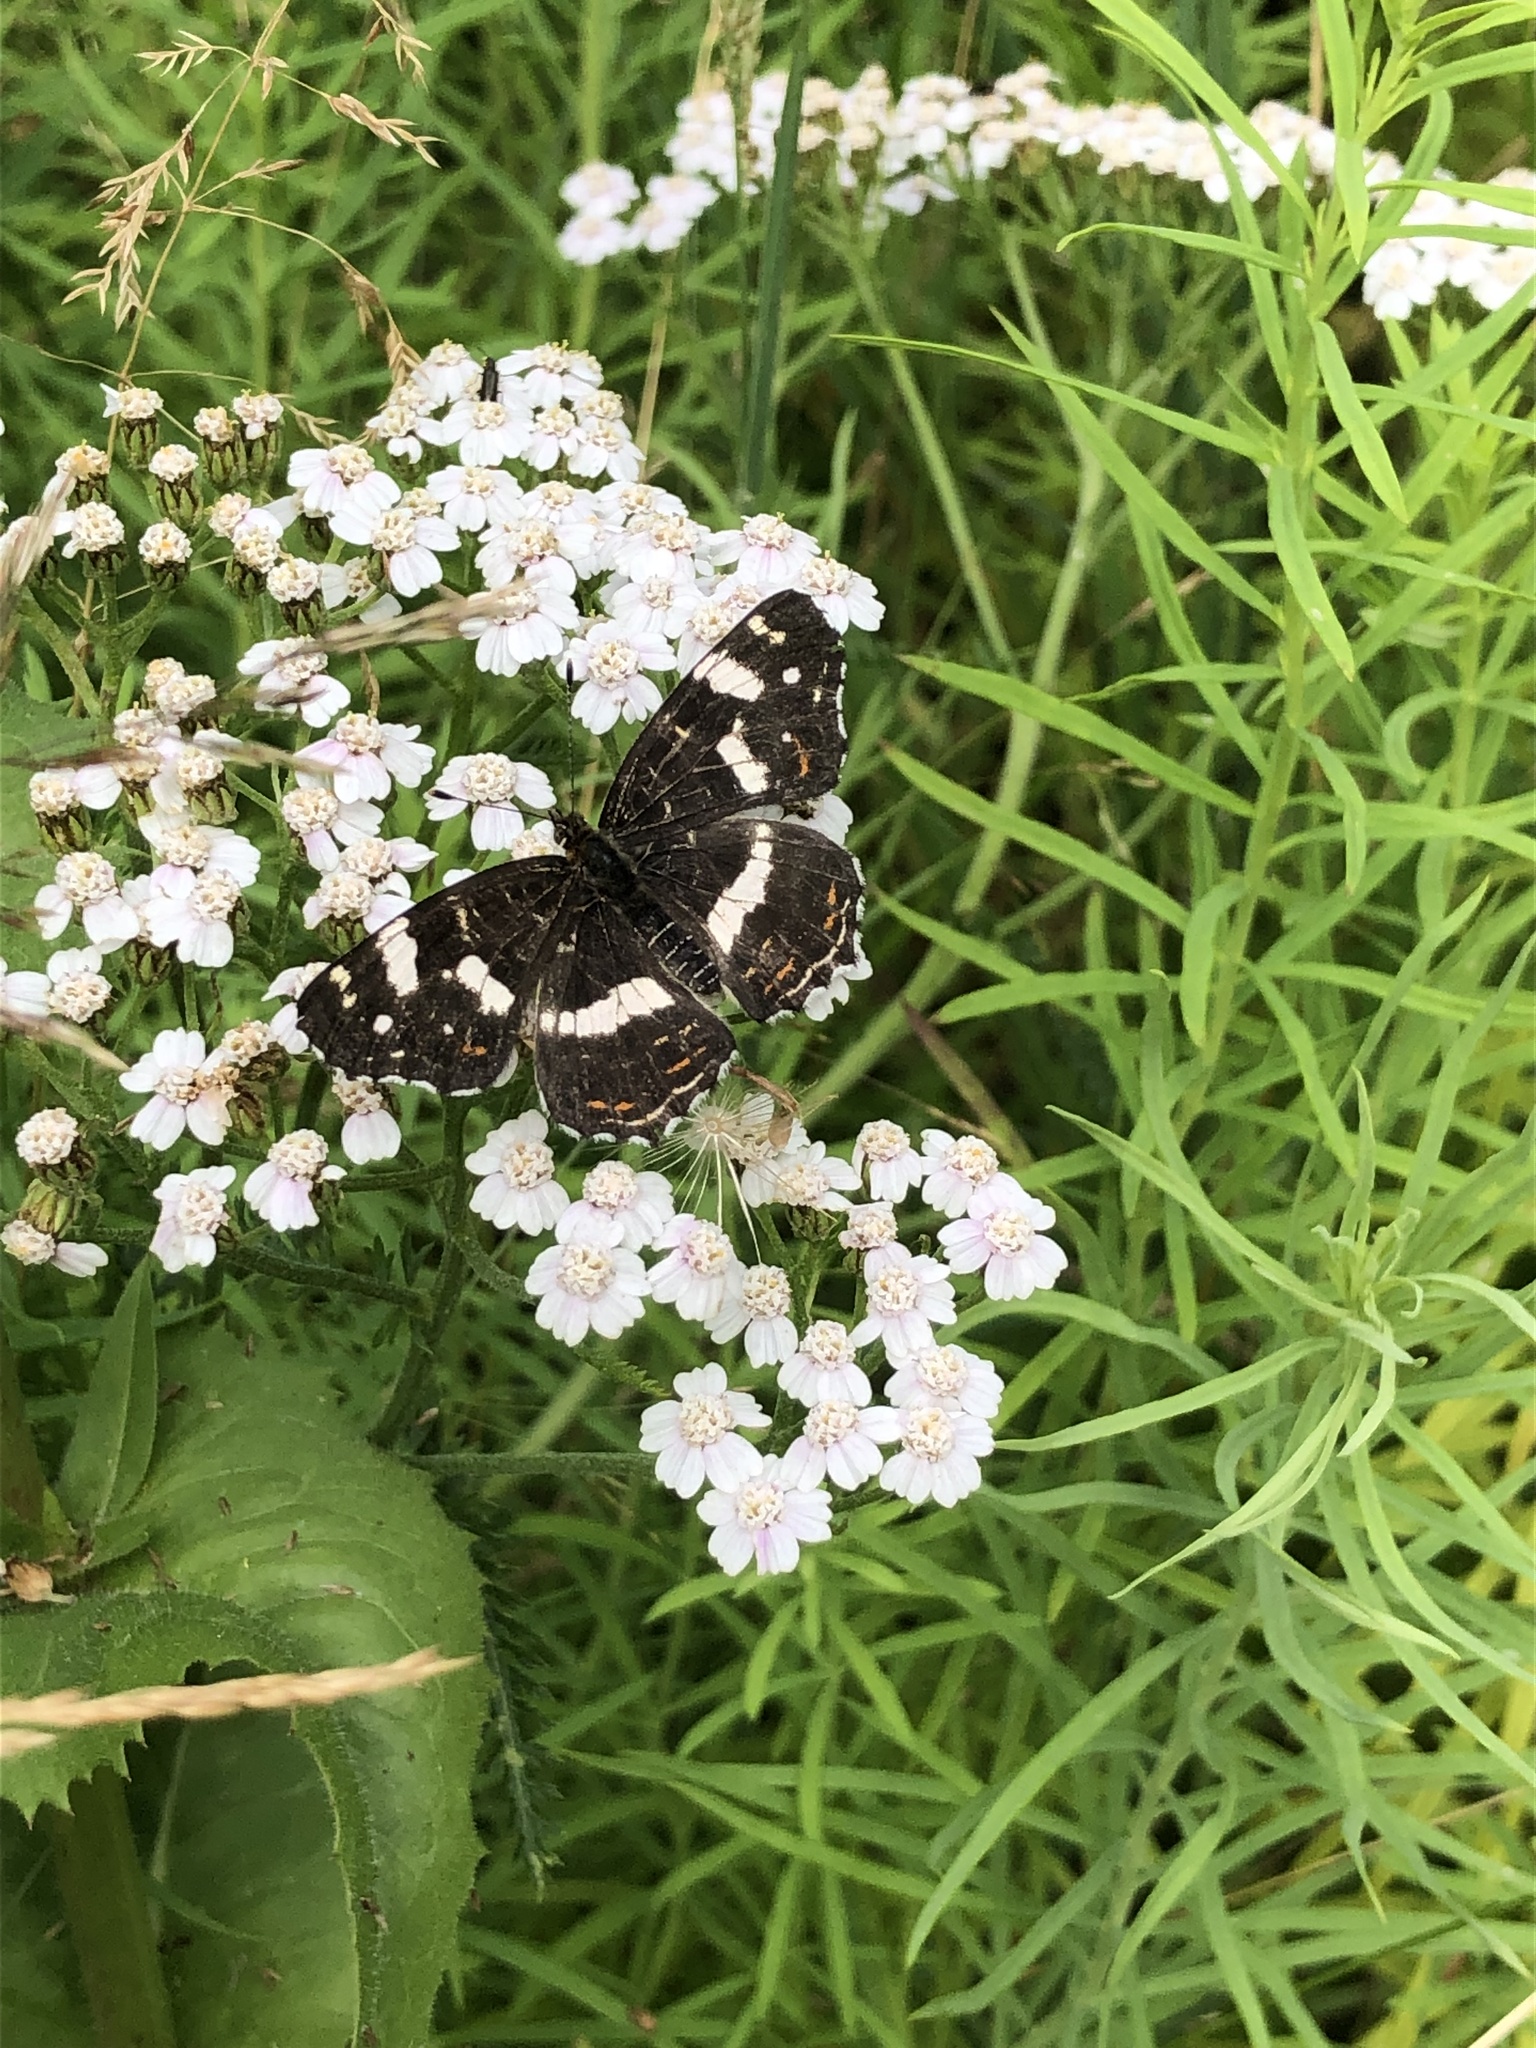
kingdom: Animalia
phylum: Arthropoda
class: Insecta
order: Lepidoptera
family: Nymphalidae
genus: Araschnia
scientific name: Araschnia levana
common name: Map butterfly
